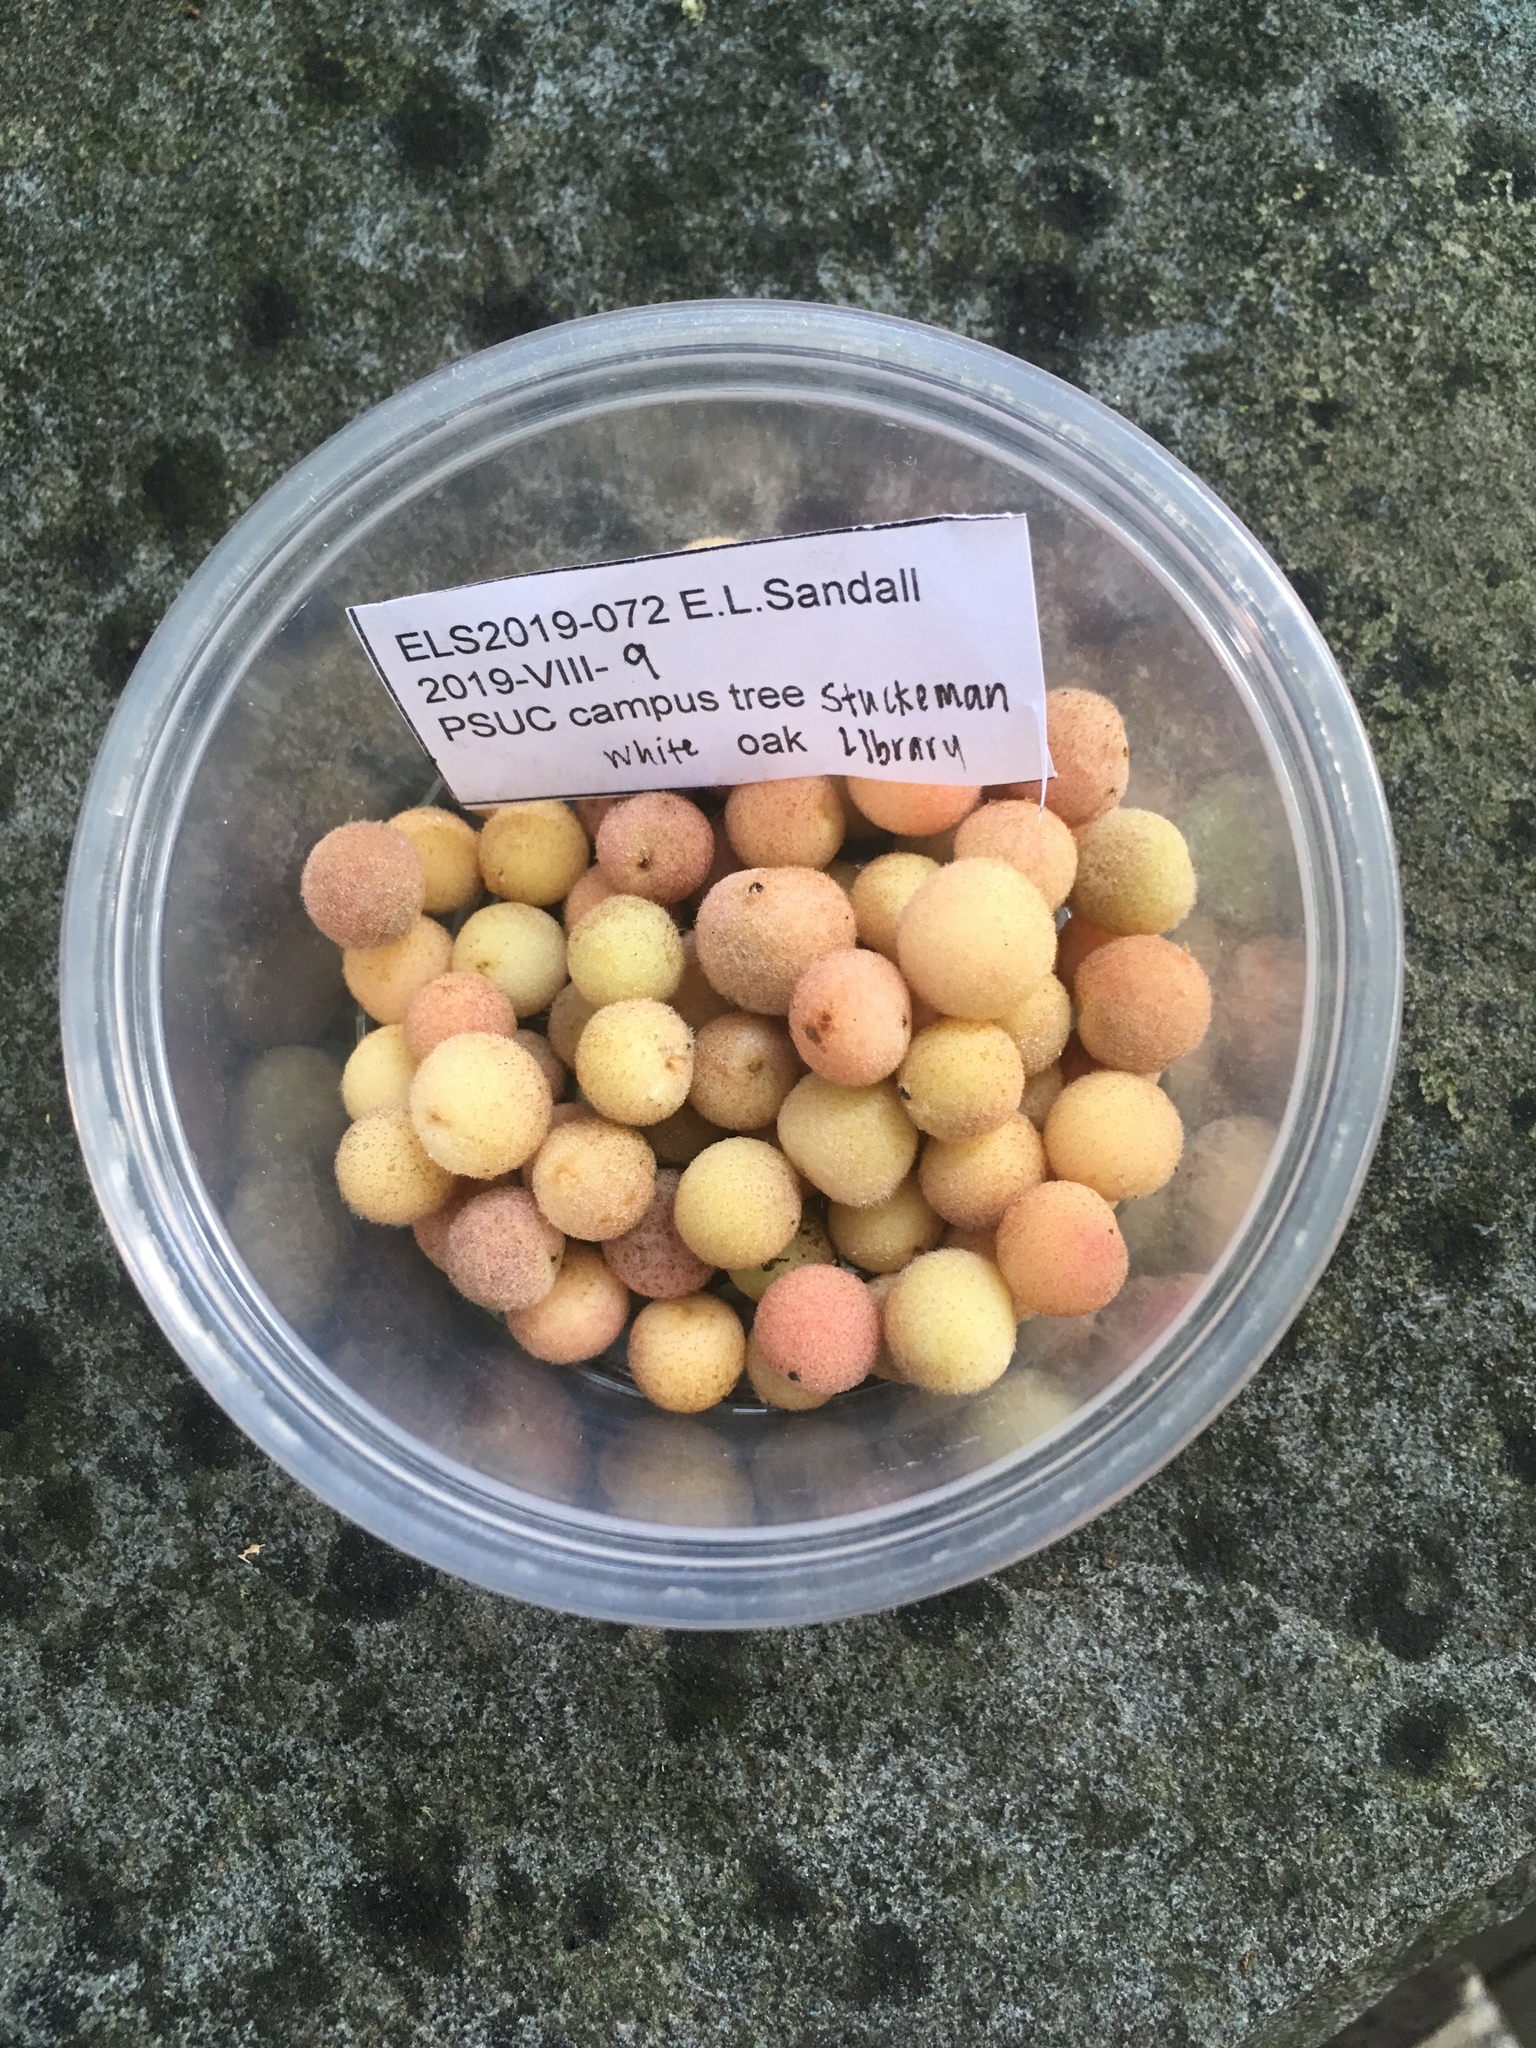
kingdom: Animalia
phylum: Arthropoda
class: Insecta
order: Hymenoptera
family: Cynipidae
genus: Philonix
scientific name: Philonix fulvicollis
